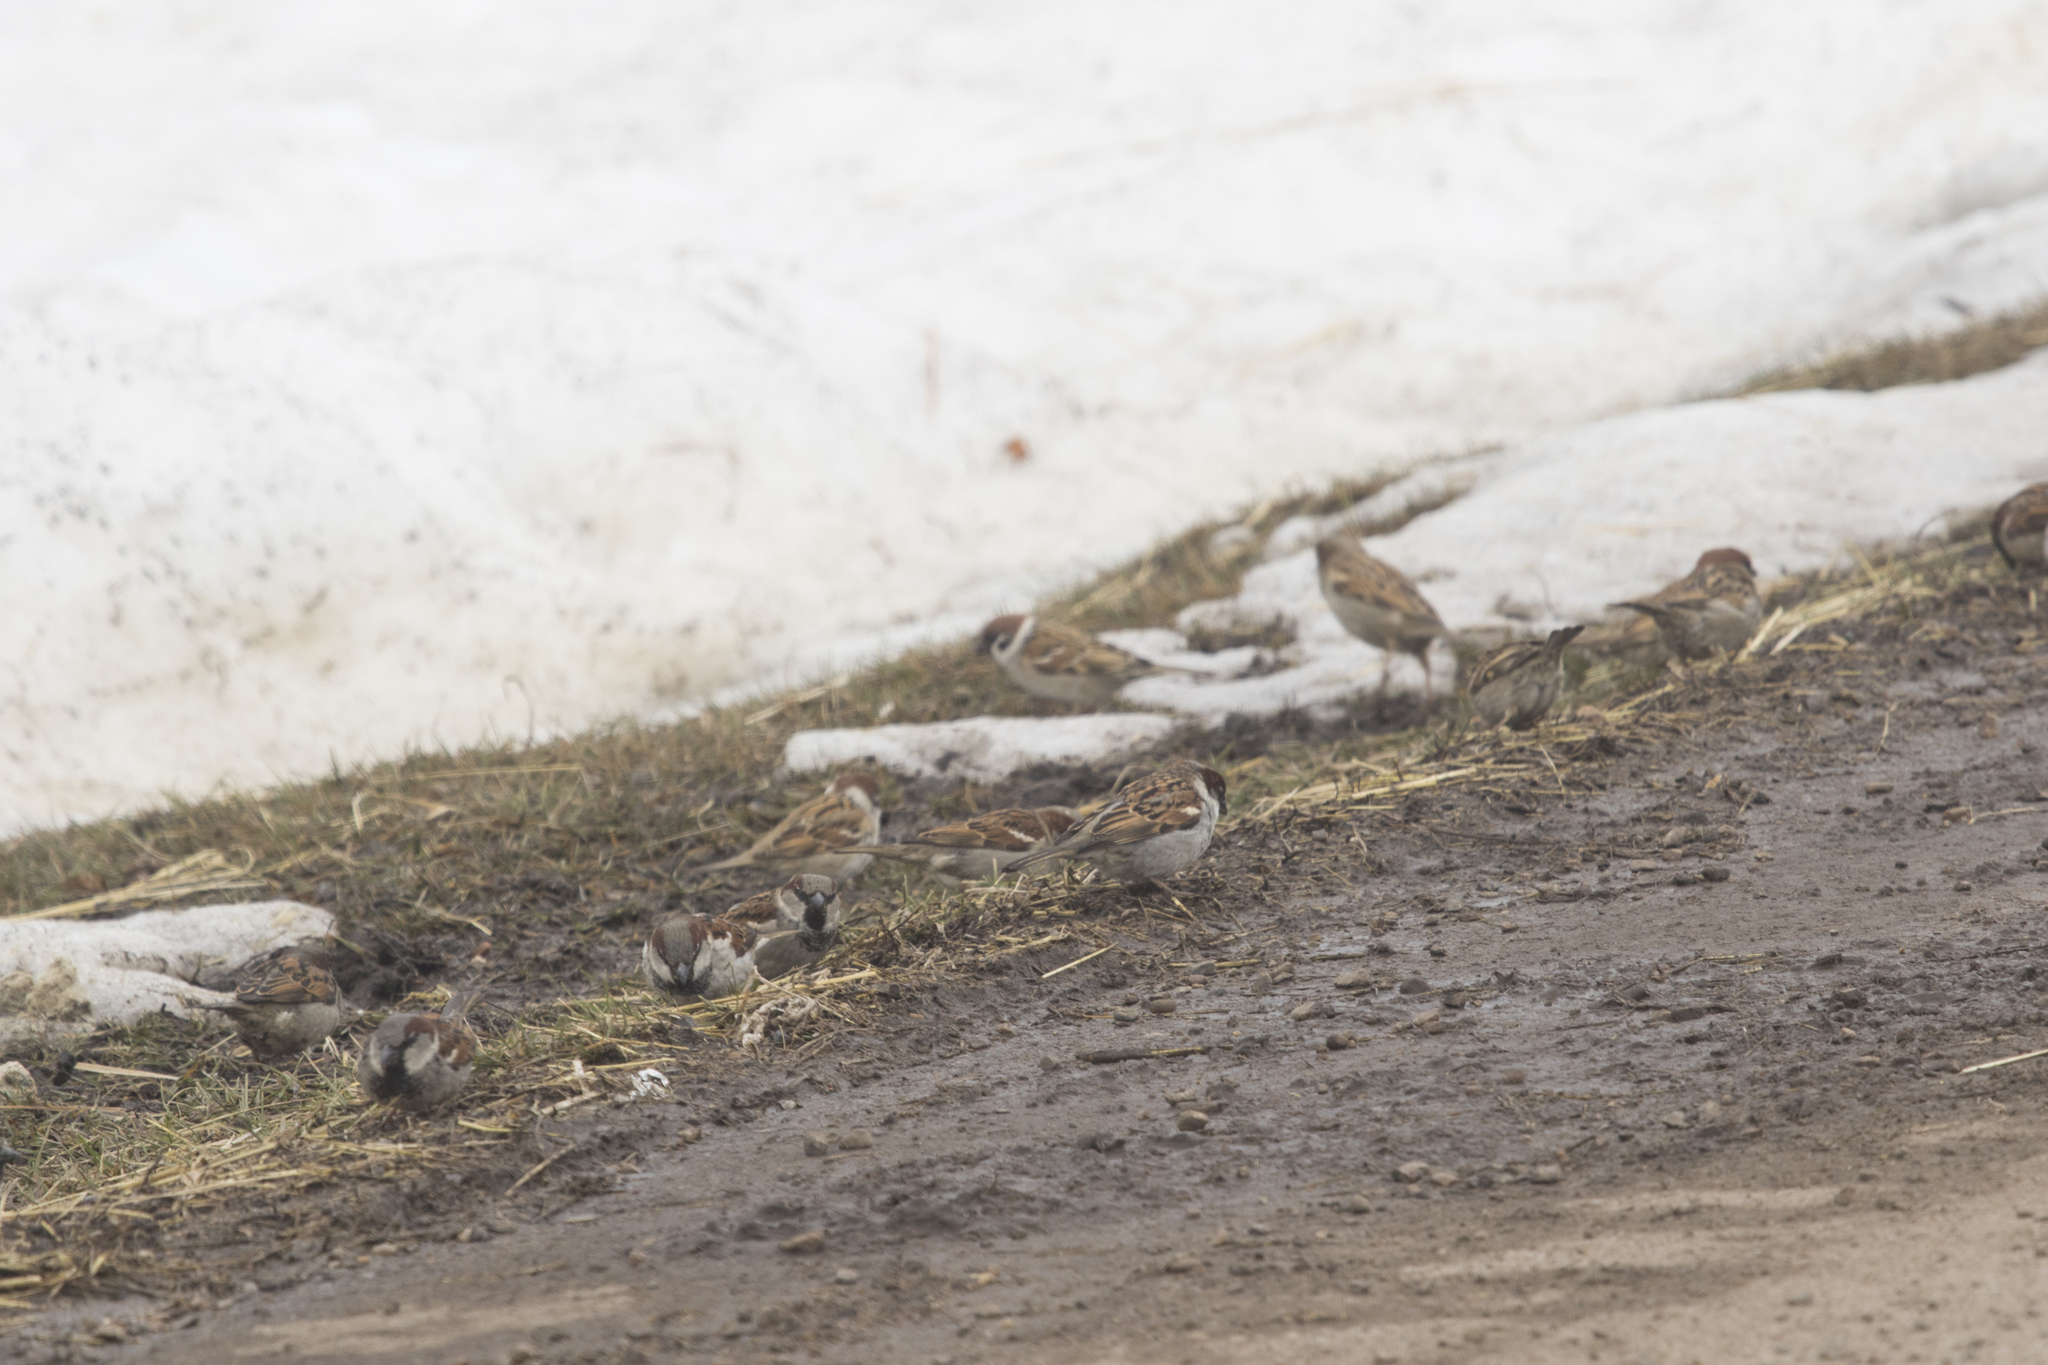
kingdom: Animalia
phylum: Chordata
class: Aves
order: Passeriformes
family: Passeridae
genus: Passer
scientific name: Passer montanus
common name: Eurasian tree sparrow
